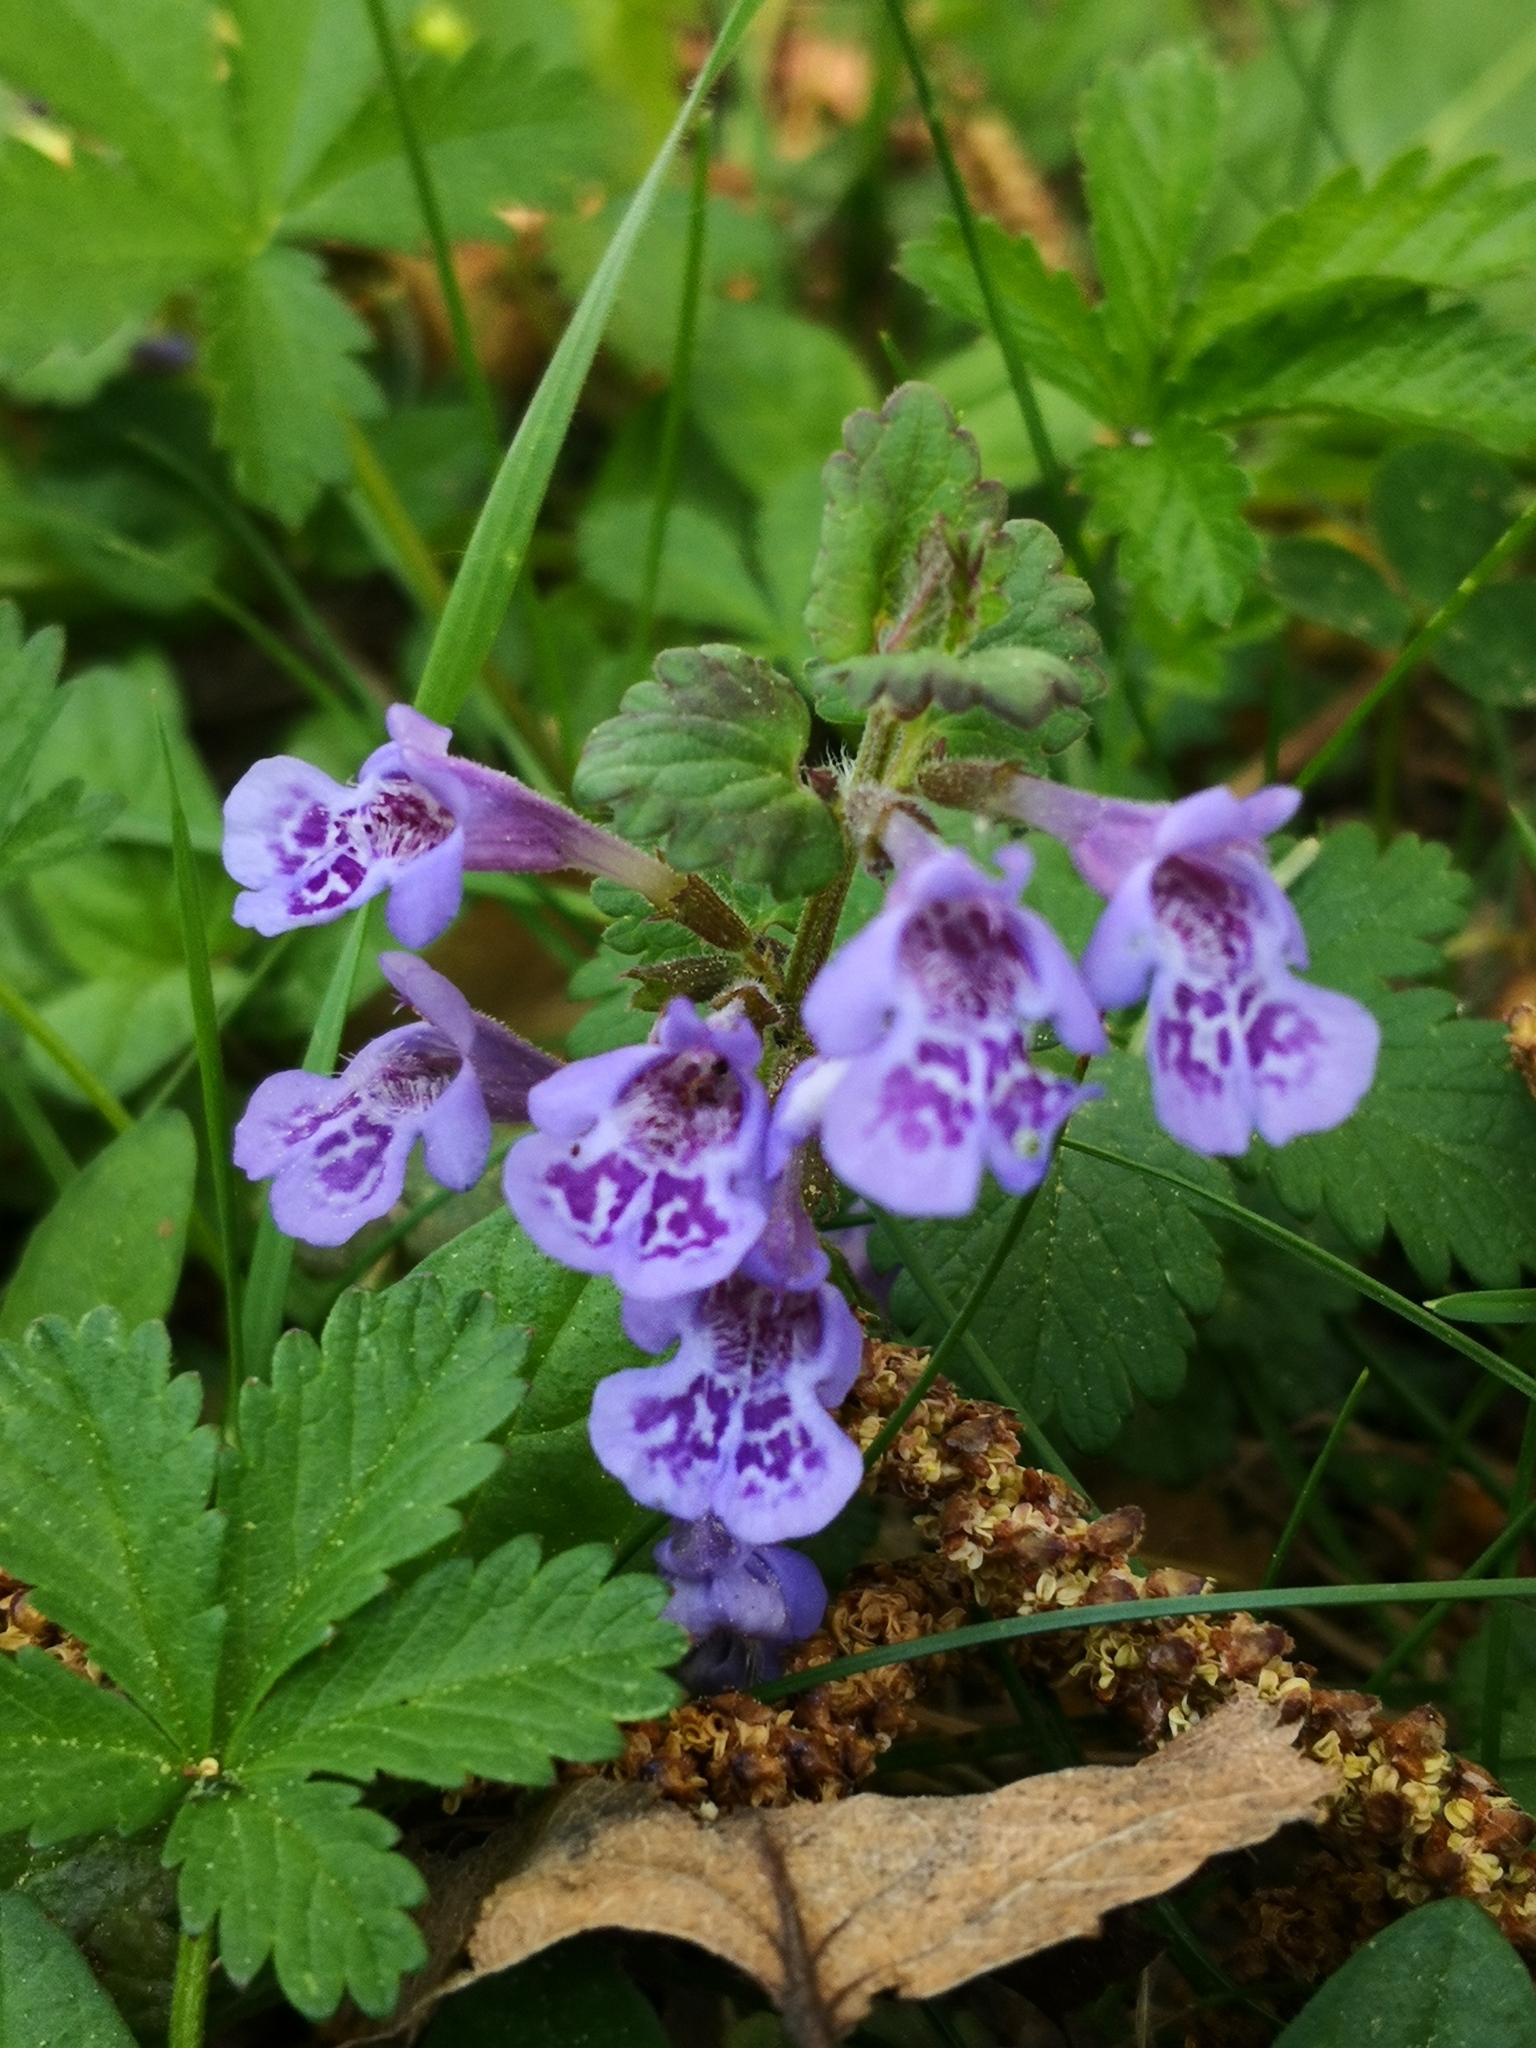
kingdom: Plantae
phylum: Tracheophyta
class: Magnoliopsida
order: Lamiales
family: Lamiaceae
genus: Glechoma
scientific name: Glechoma hederacea
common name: Ground ivy
